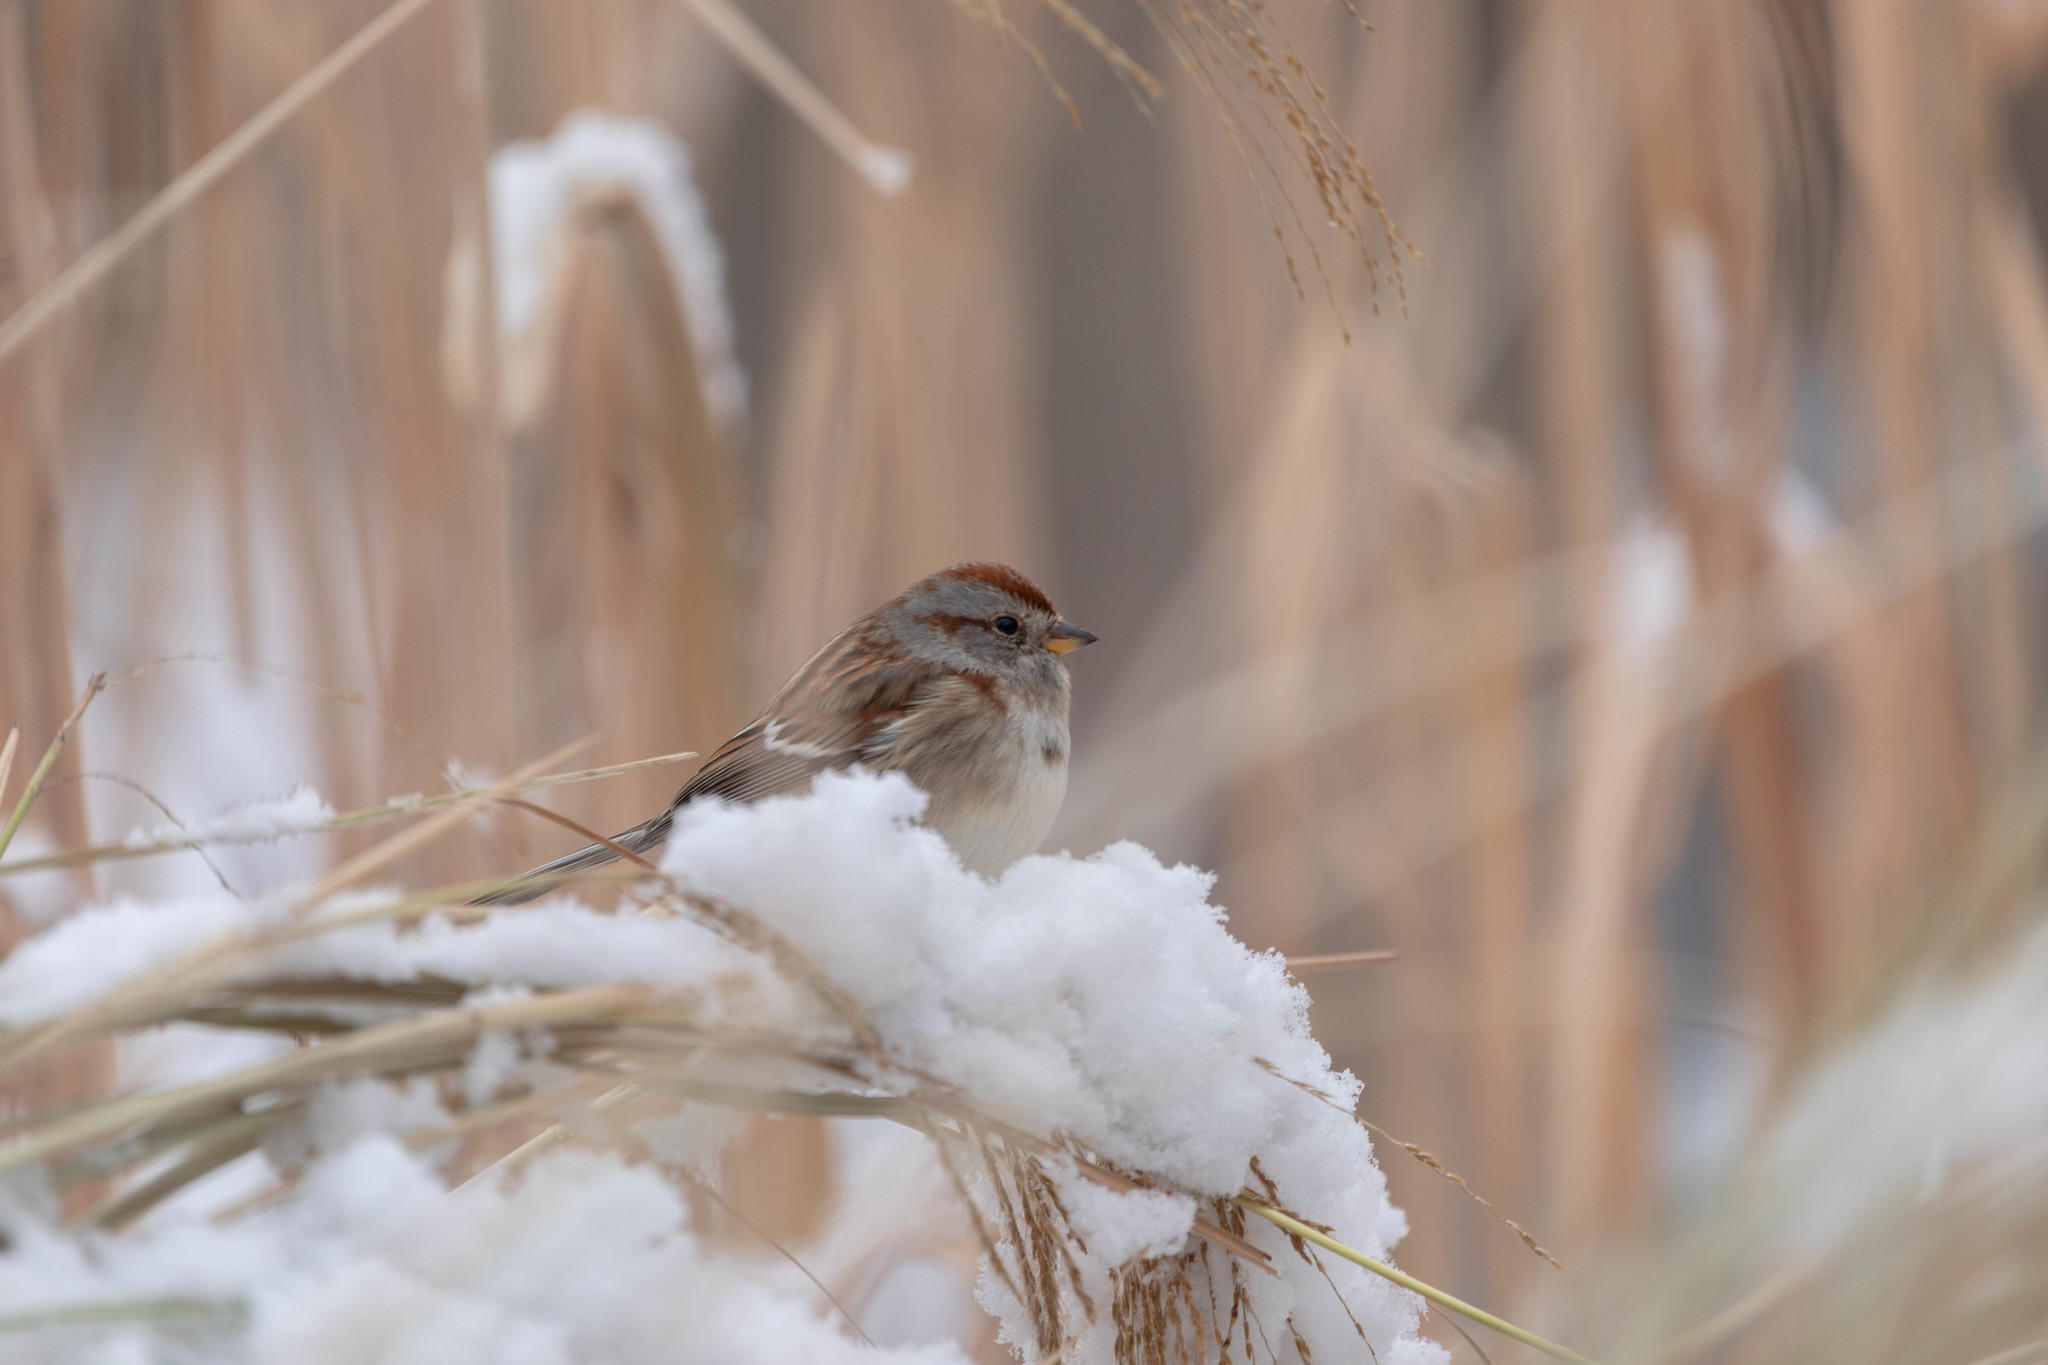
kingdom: Animalia
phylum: Chordata
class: Aves
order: Passeriformes
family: Passerellidae
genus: Spizelloides
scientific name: Spizelloides arborea
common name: American tree sparrow
